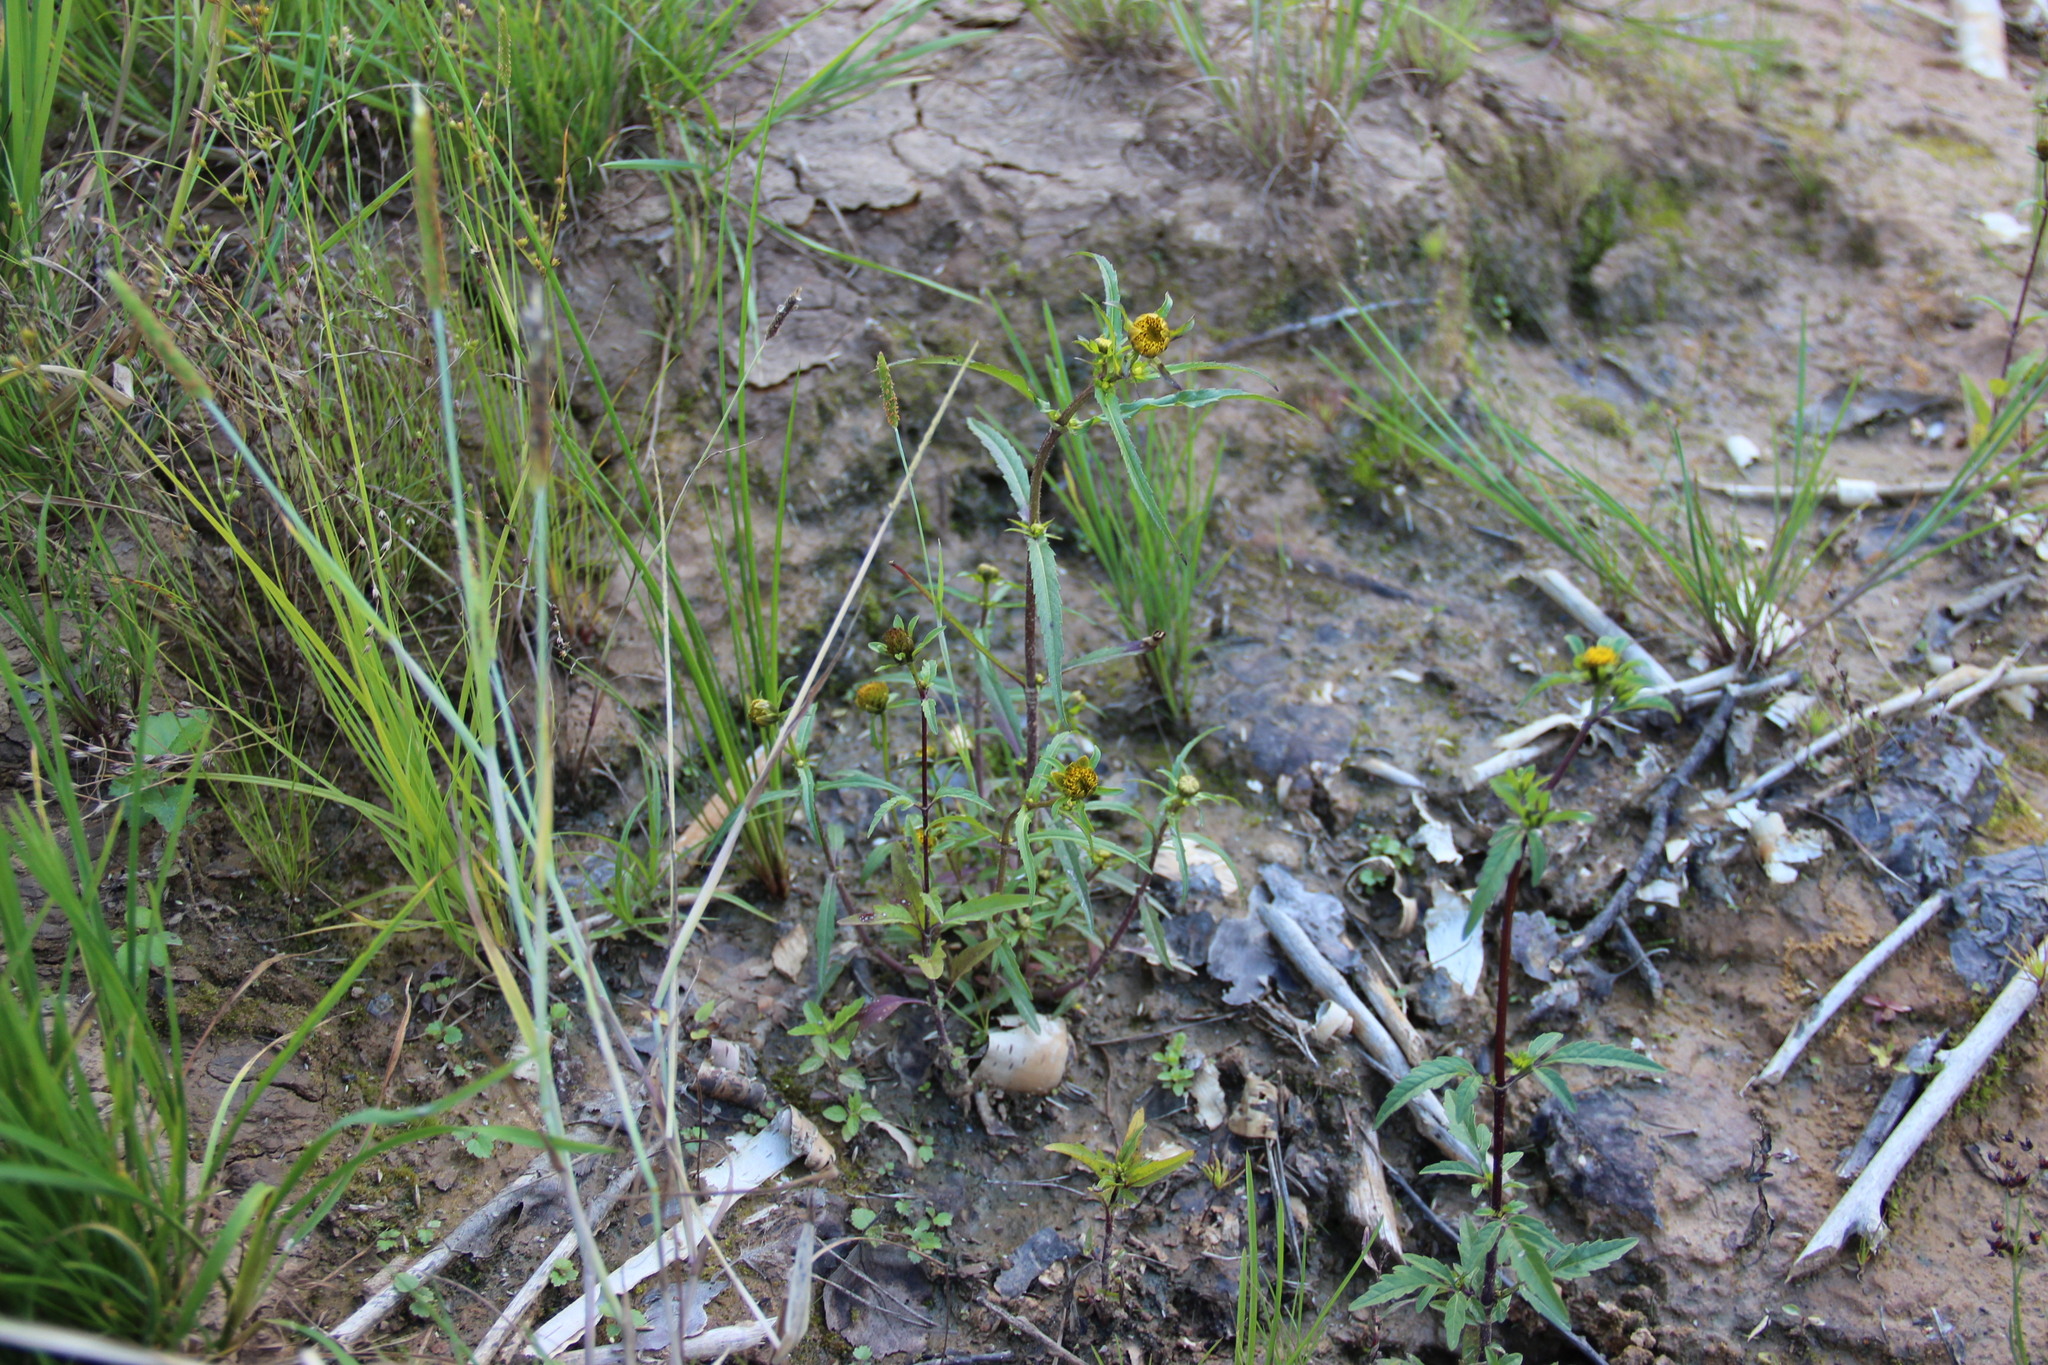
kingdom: Plantae
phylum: Tracheophyta
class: Magnoliopsida
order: Asterales
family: Asteraceae
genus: Bidens
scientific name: Bidens cernua
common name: Nodding bur-marigold
